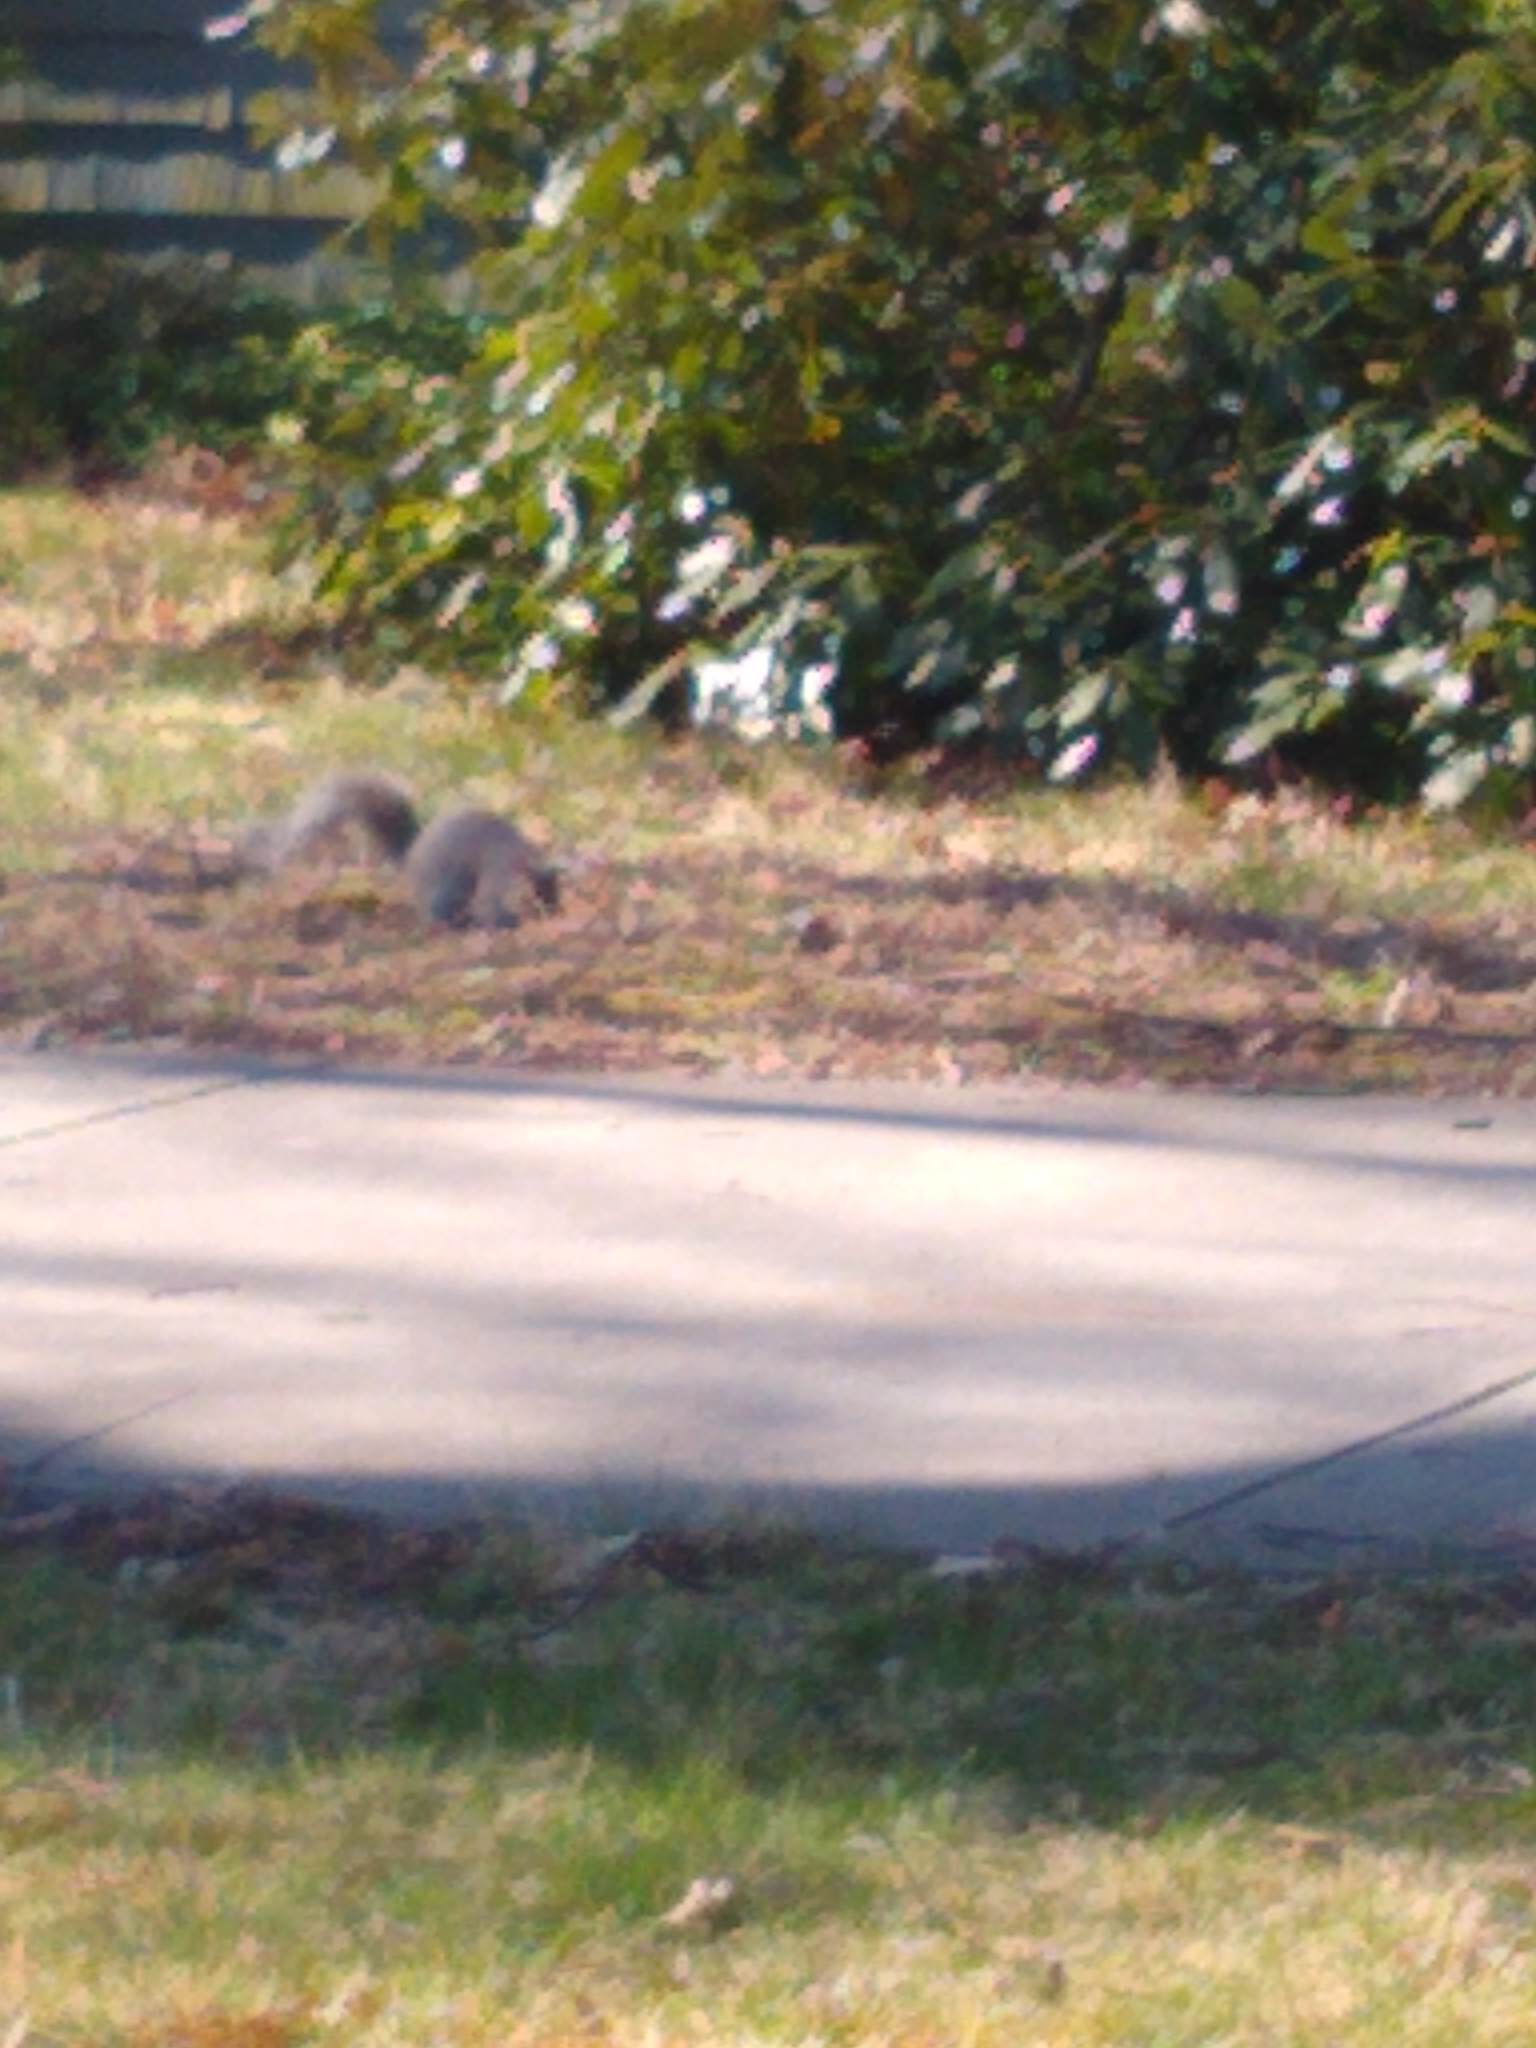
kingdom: Animalia
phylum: Chordata
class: Mammalia
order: Rodentia
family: Sciuridae
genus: Sciurus
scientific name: Sciurus carolinensis
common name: Eastern gray squirrel
